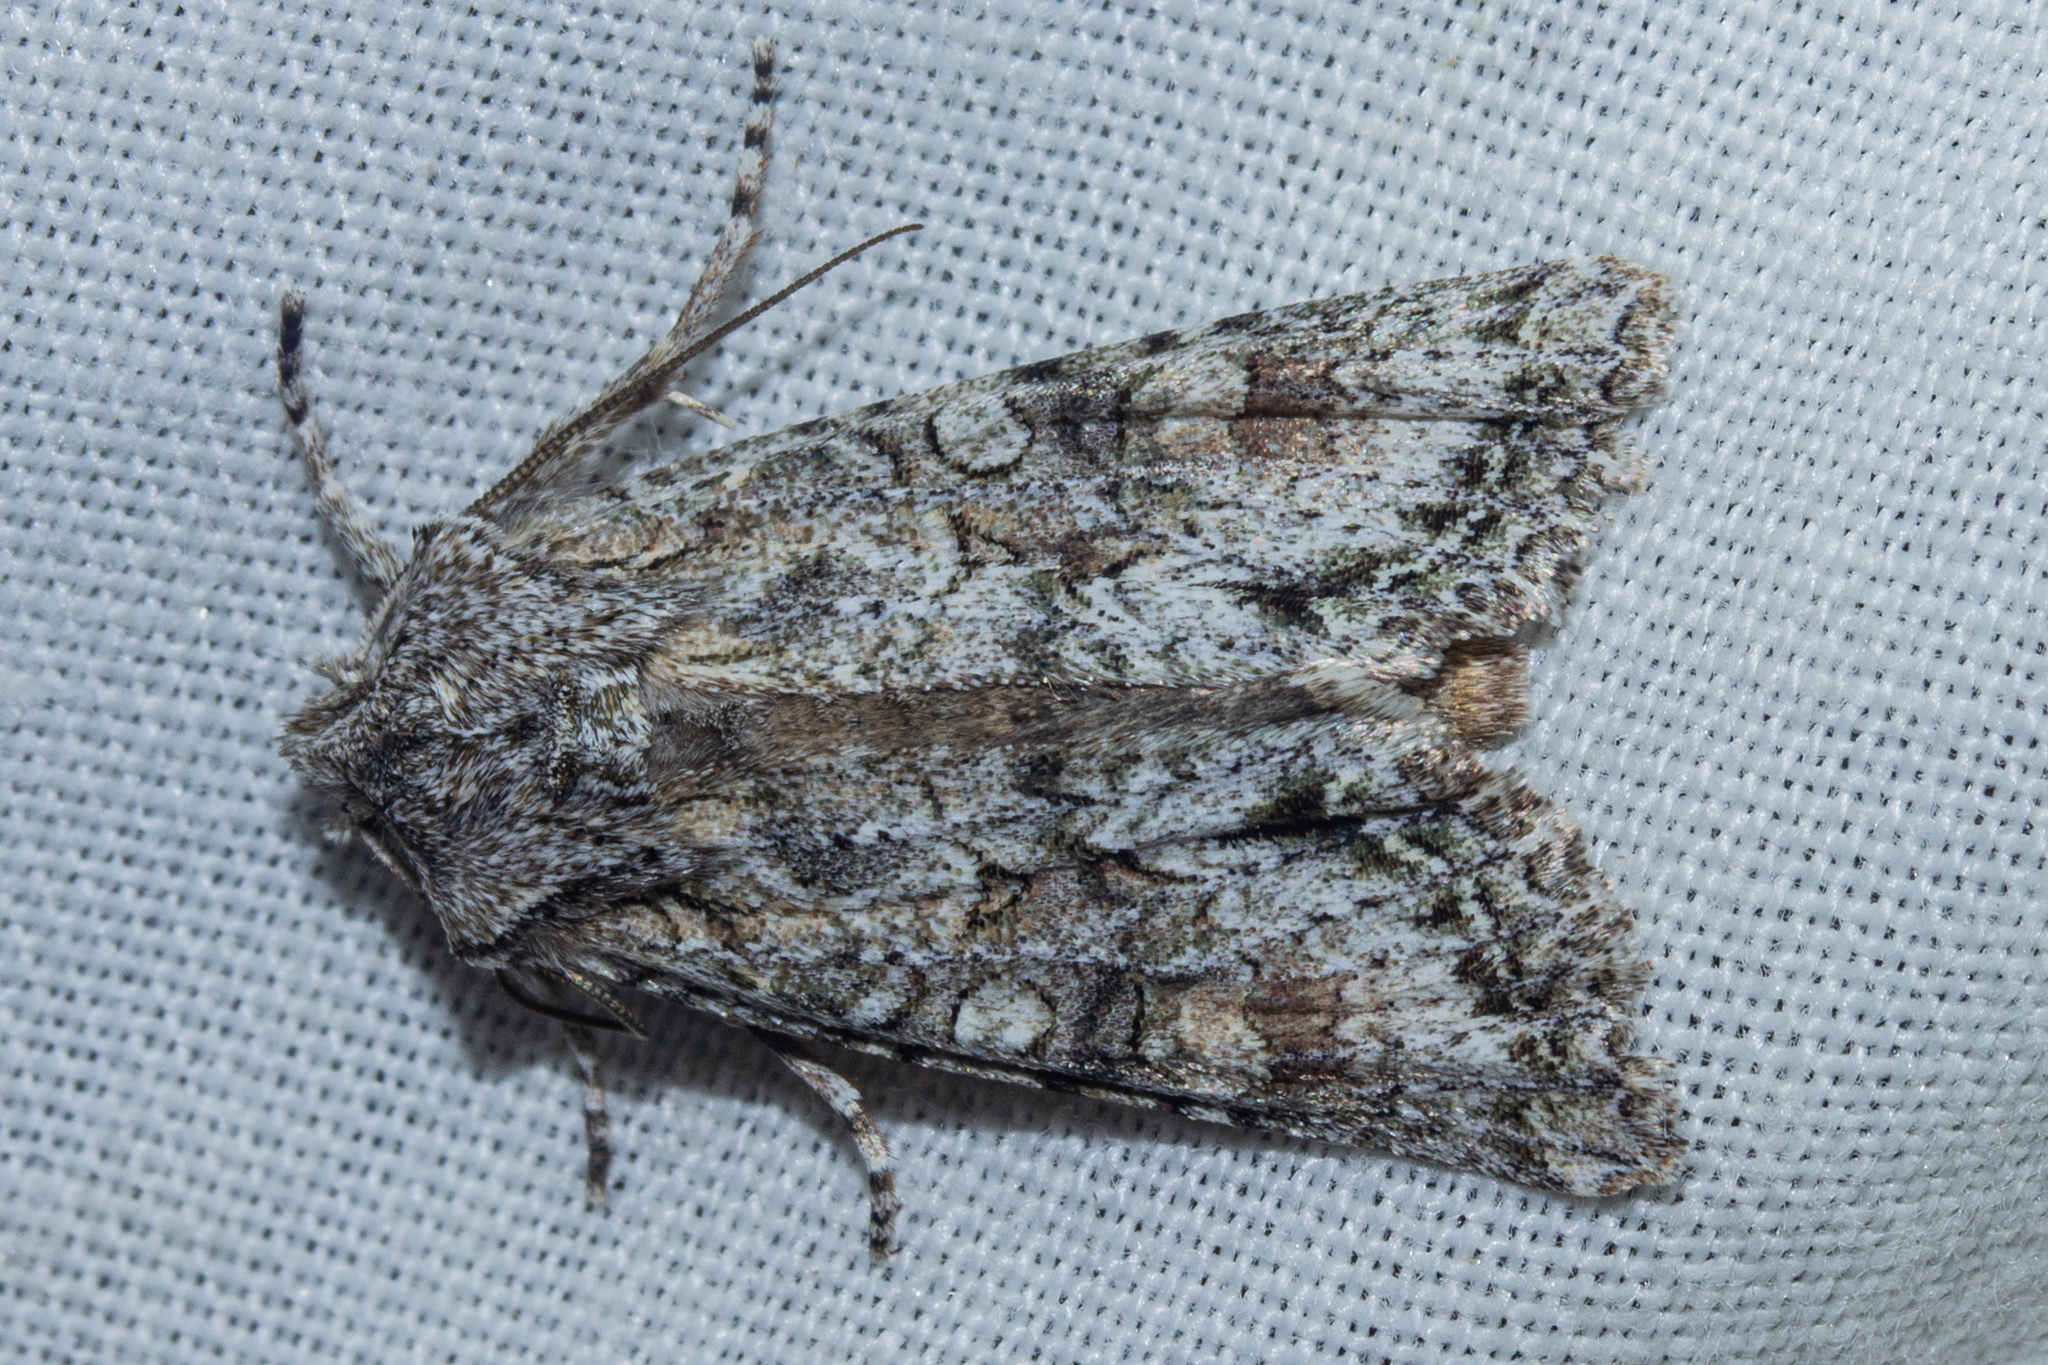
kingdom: Animalia
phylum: Arthropoda
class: Insecta
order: Lepidoptera
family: Noctuidae
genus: Ichneutica
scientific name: Ichneutica mutans
